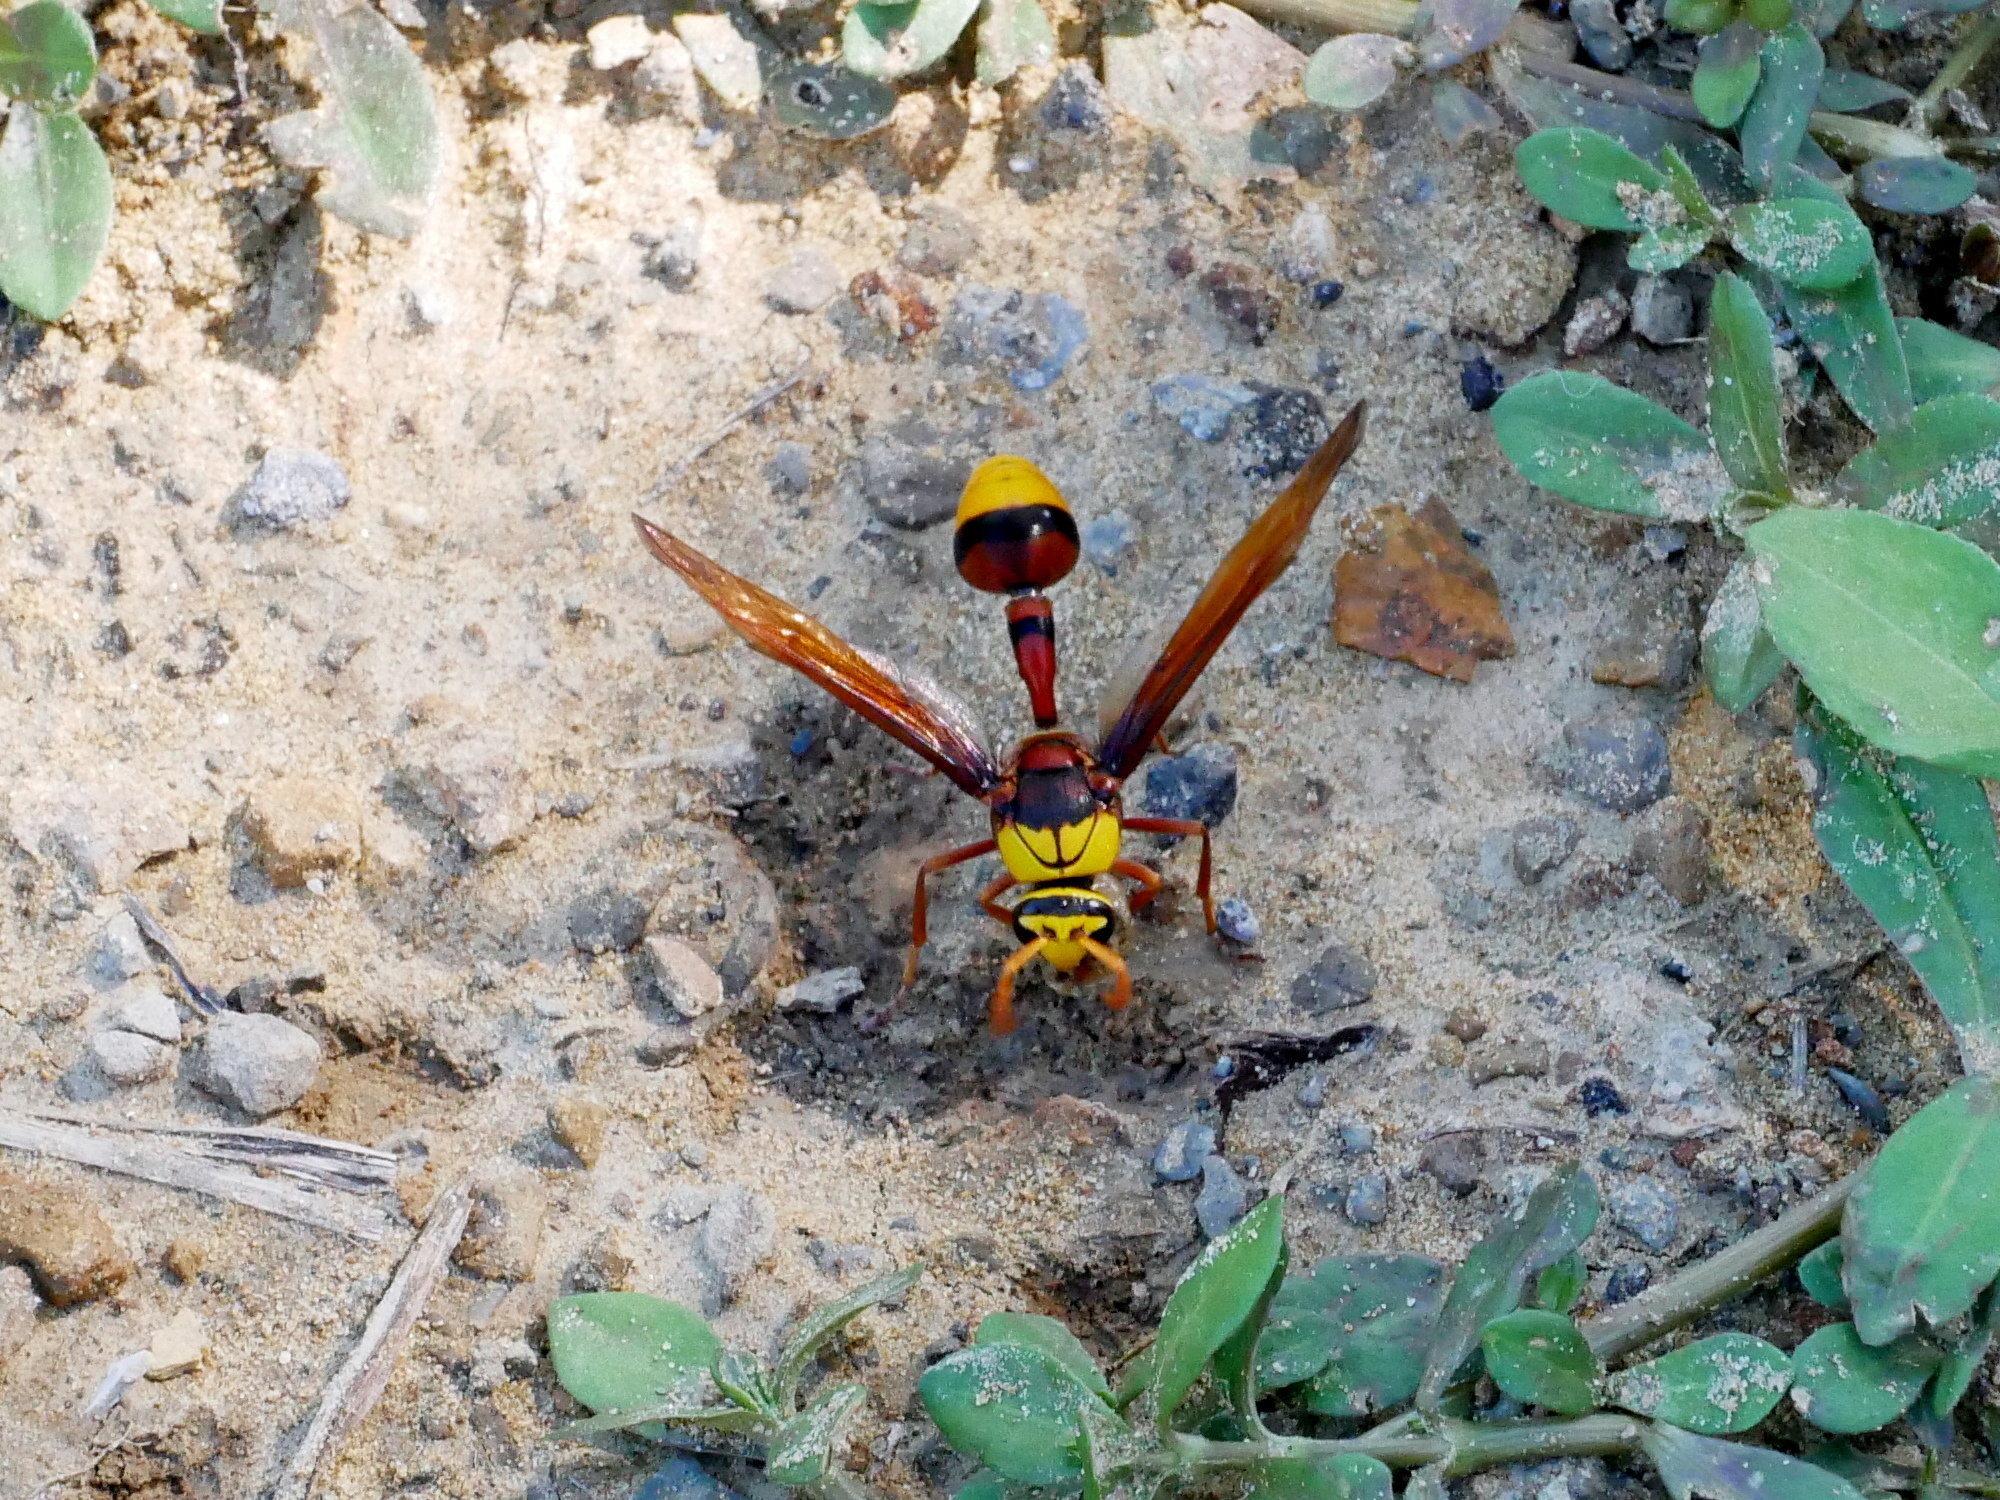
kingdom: Animalia
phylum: Arthropoda
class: Insecta
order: Hymenoptera
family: Eumenidae
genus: Delta
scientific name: Delta pyriforme
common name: Wasp
